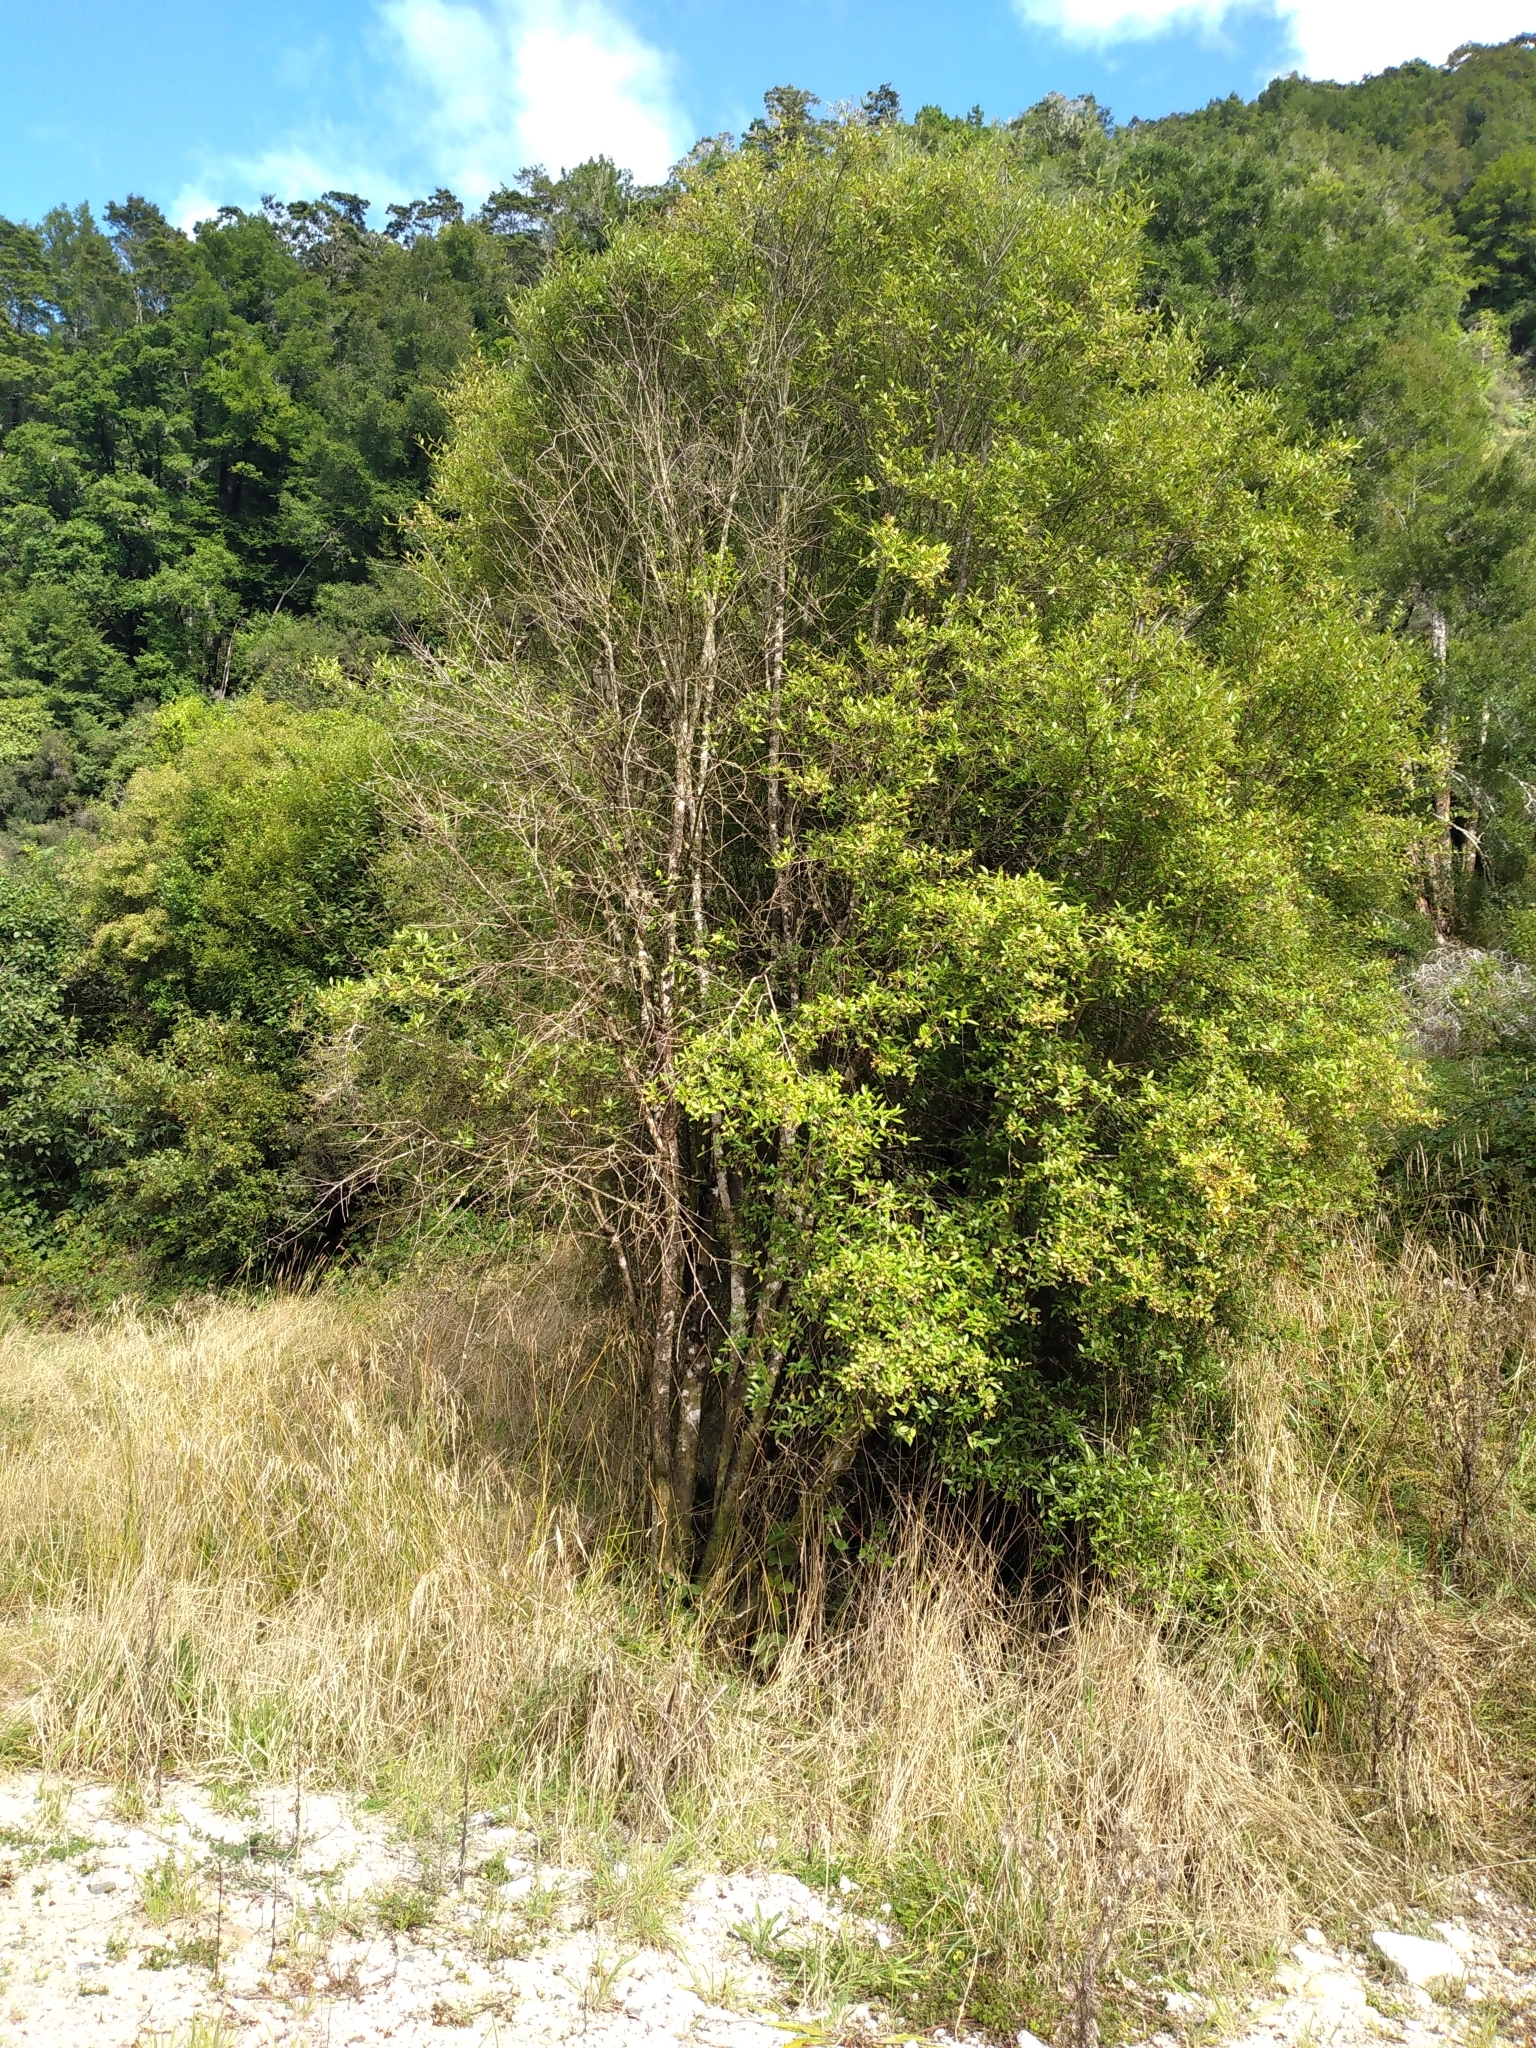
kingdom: Plantae
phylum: Tracheophyta
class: Magnoliopsida
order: Malvales
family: Malvaceae
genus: Hoheria
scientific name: Hoheria angustifolia
